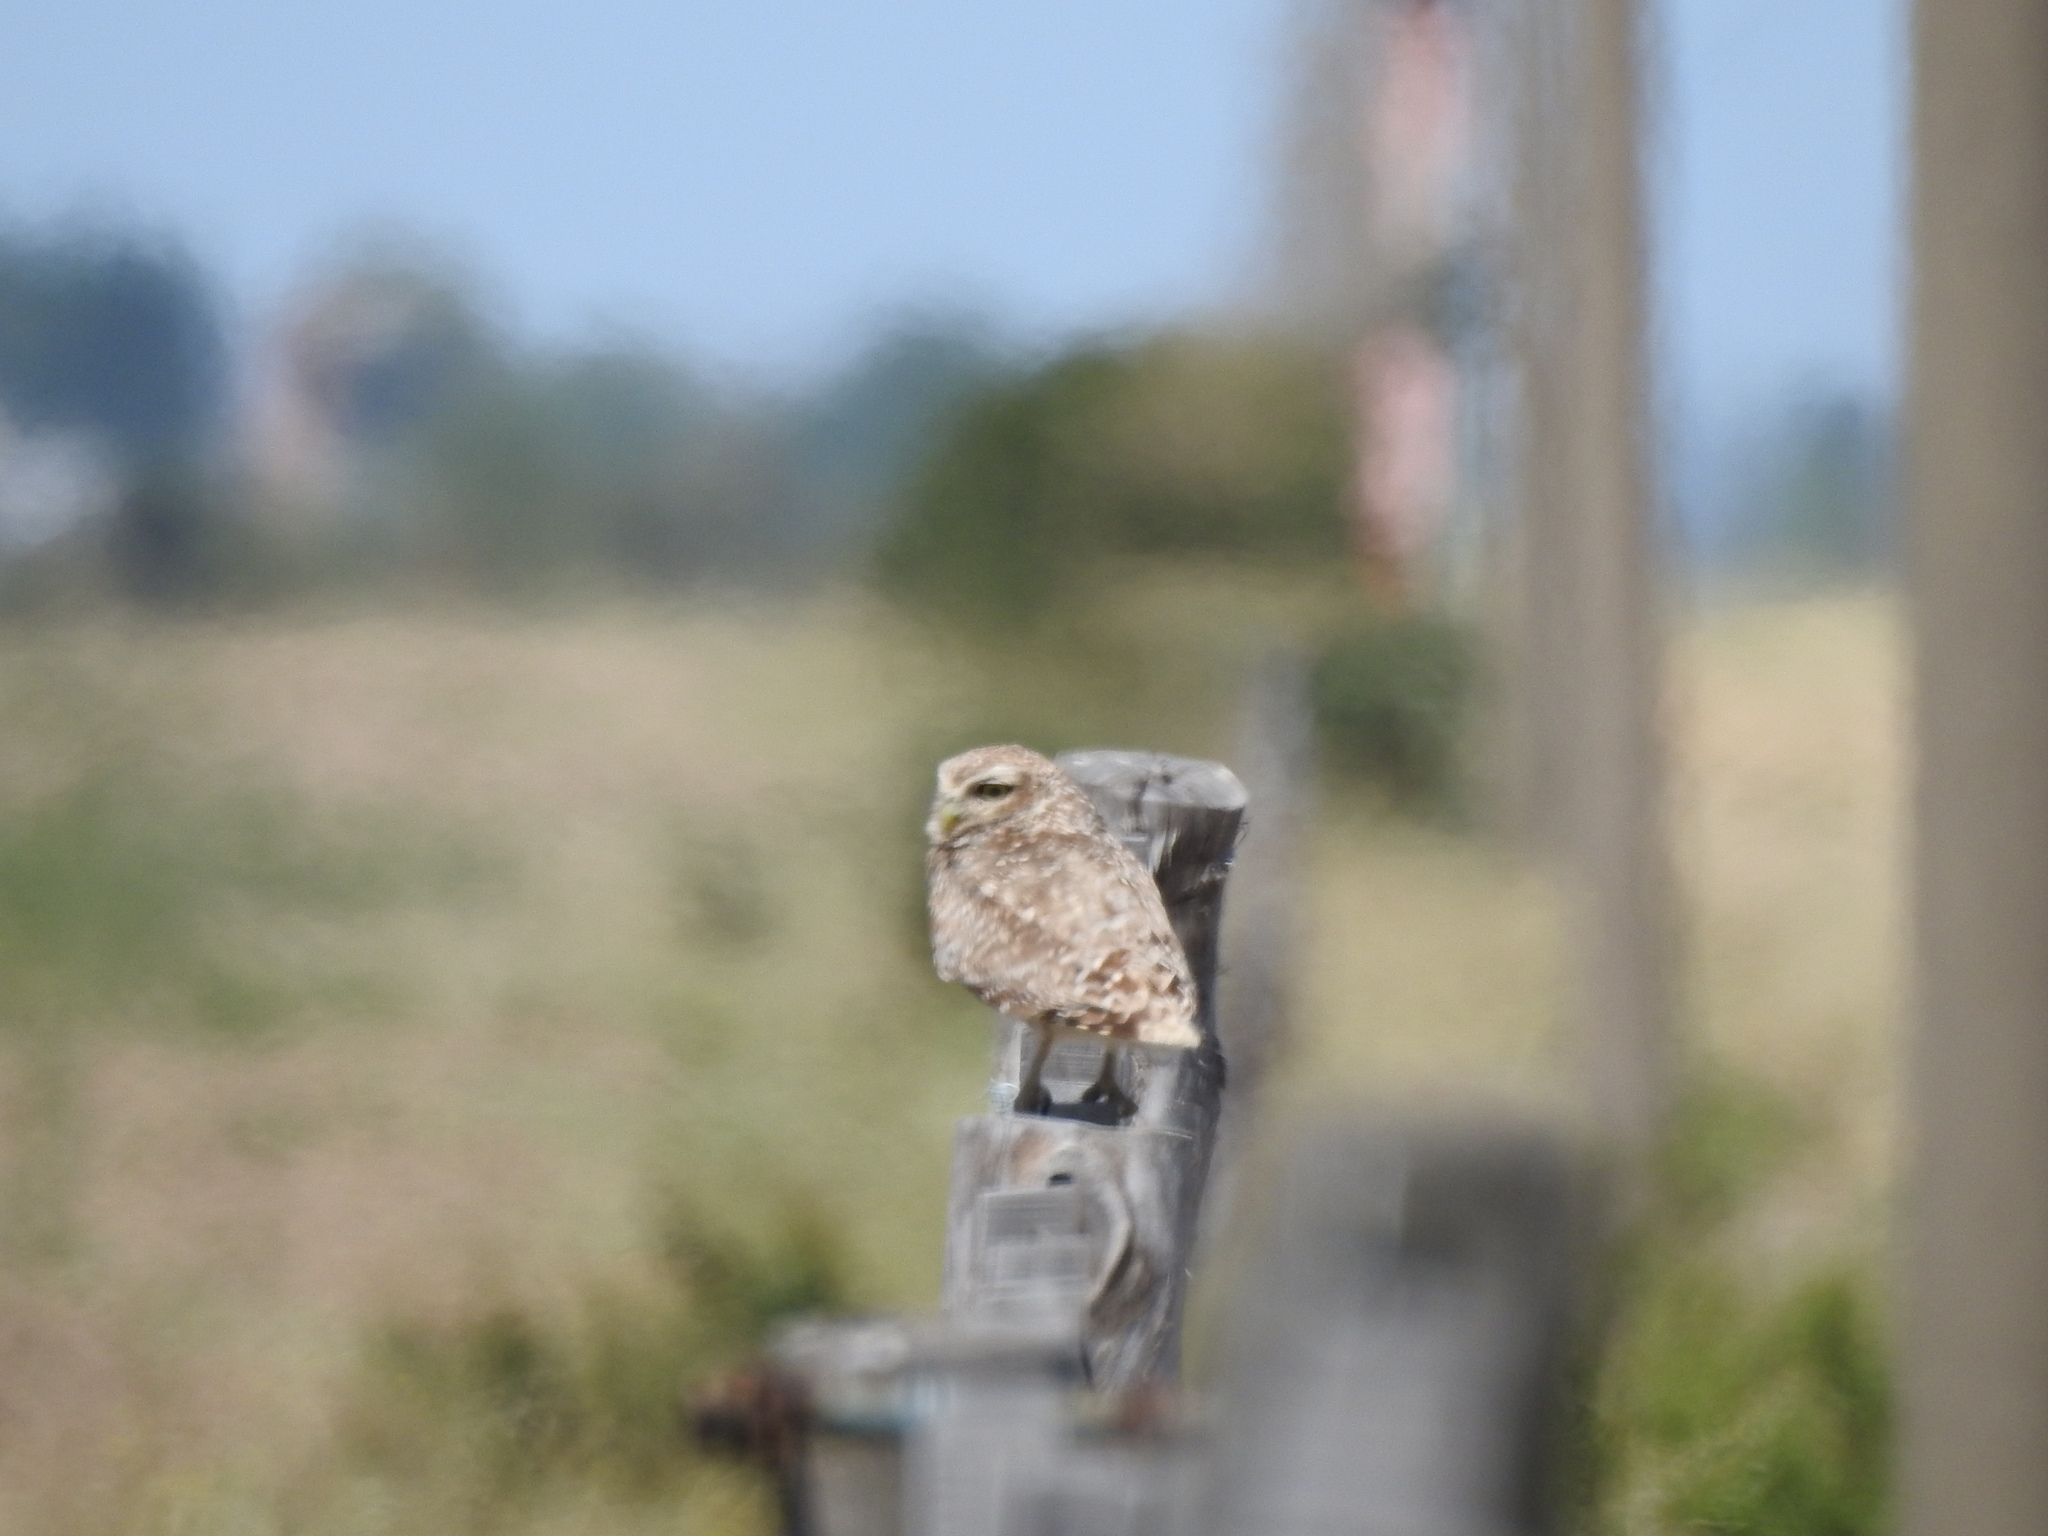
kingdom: Animalia
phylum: Chordata
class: Aves
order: Strigiformes
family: Strigidae
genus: Athene
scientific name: Athene cunicularia
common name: Burrowing owl
